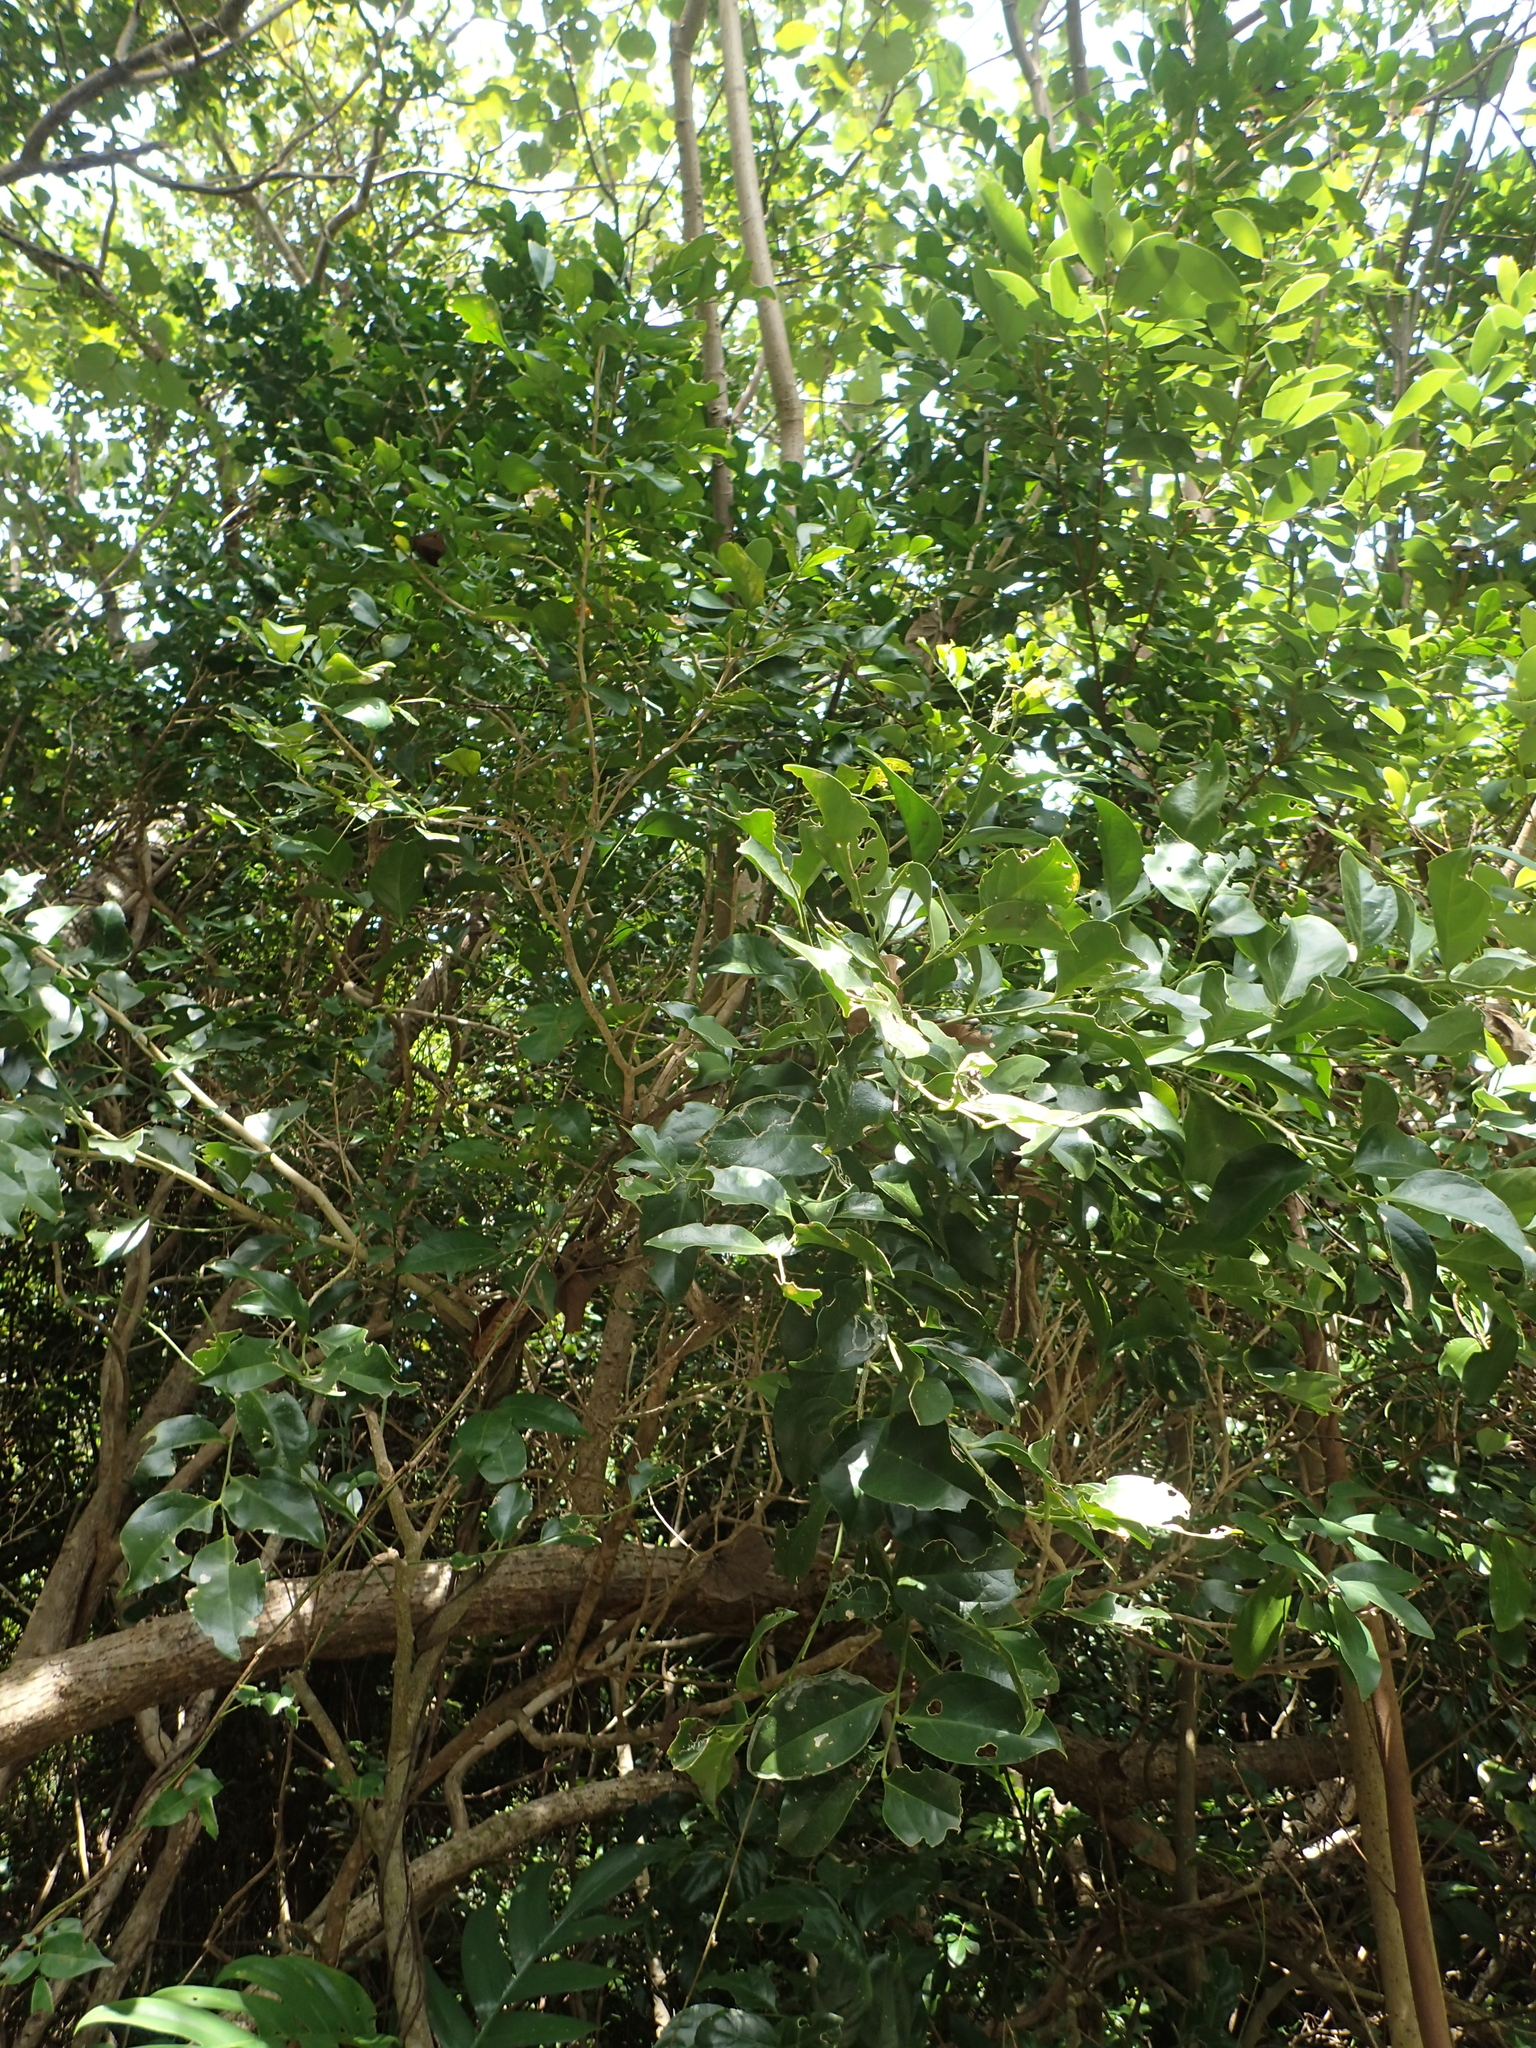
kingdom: Plantae
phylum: Tracheophyta
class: Magnoliopsida
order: Santalales
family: Opiliaceae
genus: Champereia
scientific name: Champereia manillana
